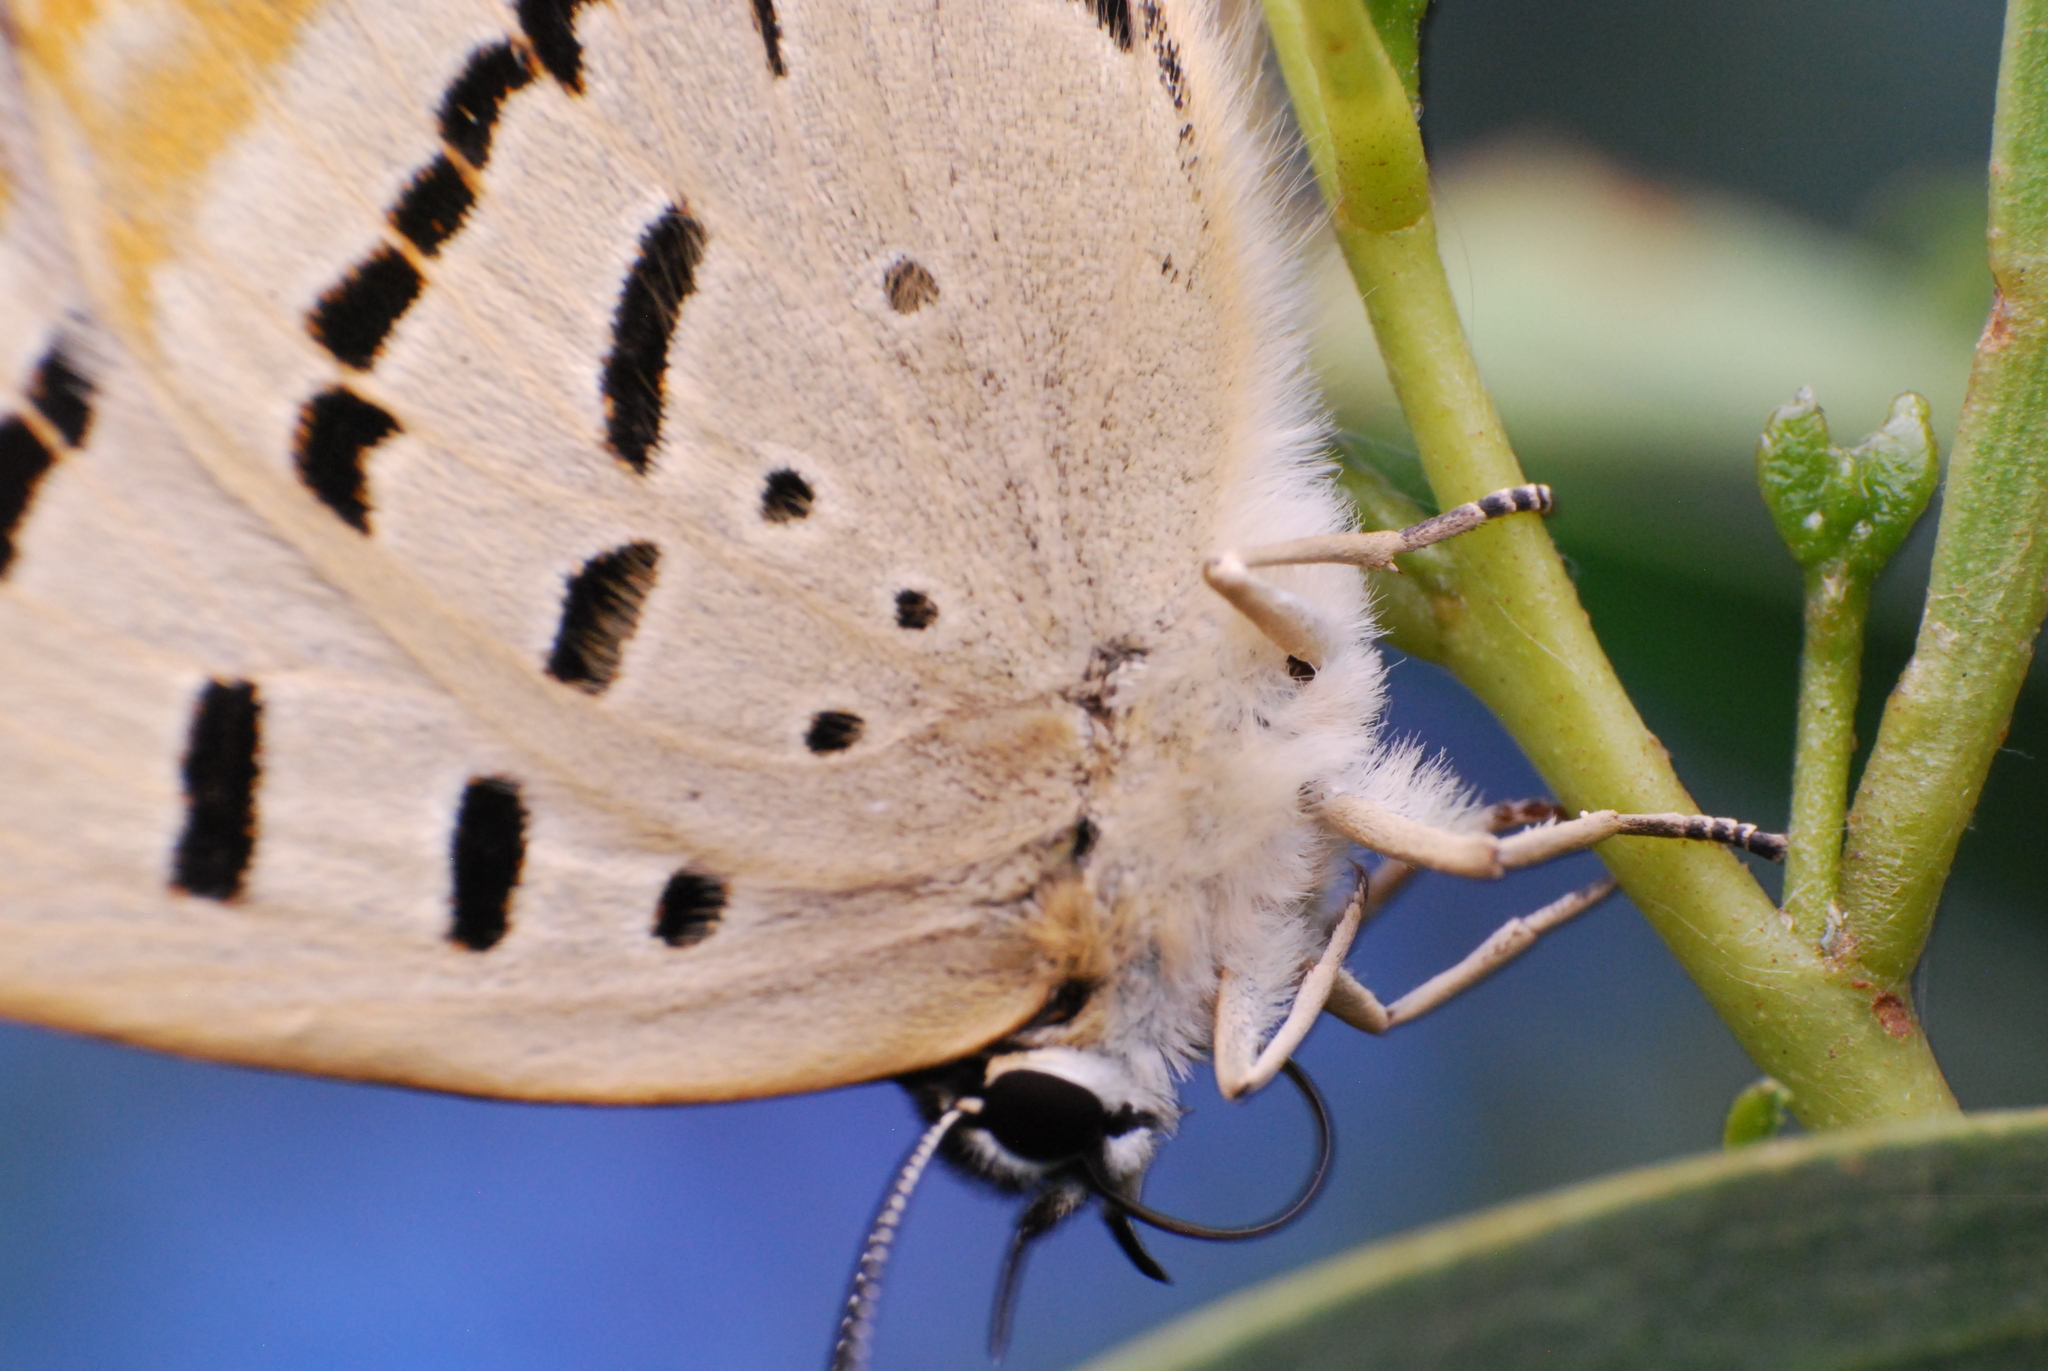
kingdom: Animalia
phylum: Arthropoda
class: Insecta
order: Lepidoptera
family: Lycaenidae
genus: Jalmenus
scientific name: Jalmenus evagoras
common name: Common imperial blue
